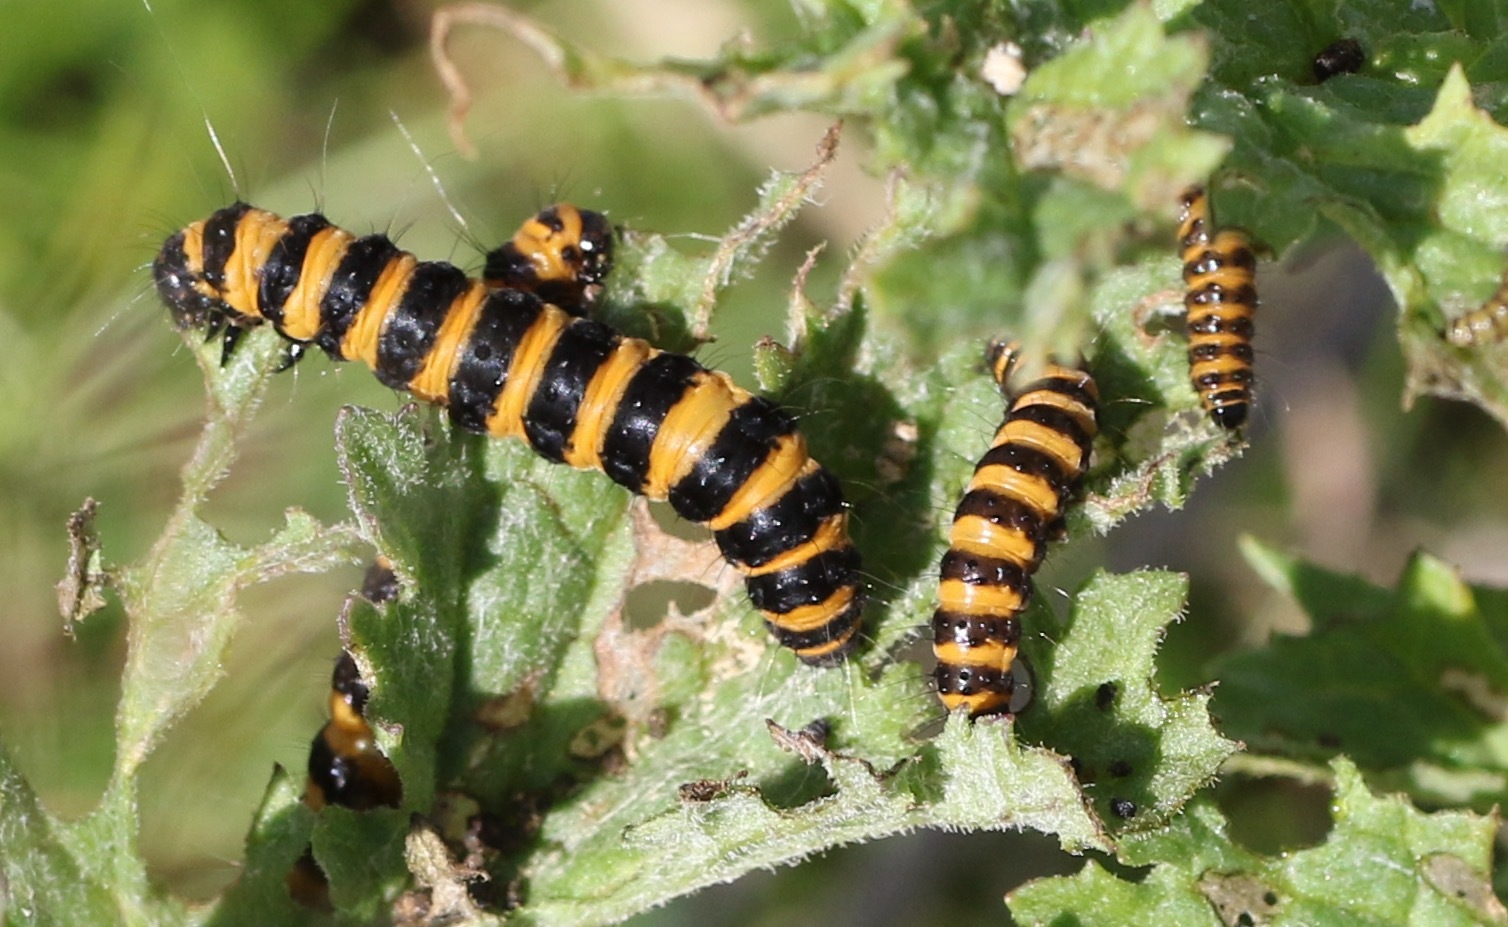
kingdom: Animalia
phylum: Arthropoda
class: Insecta
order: Lepidoptera
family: Erebidae
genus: Tyria
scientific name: Tyria jacobaeae
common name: Cinnabar
